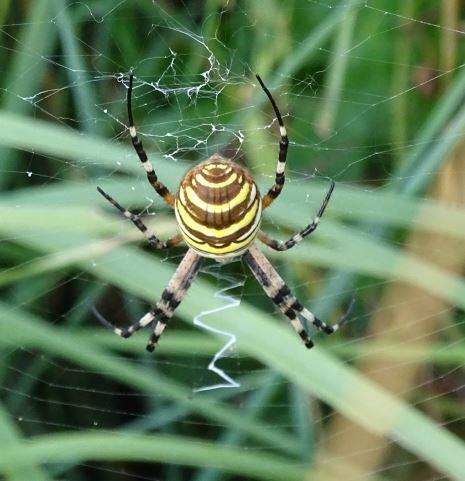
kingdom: Animalia
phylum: Arthropoda
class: Arachnida
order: Araneae
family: Araneidae
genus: Argiope
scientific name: Argiope bruennichi
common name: Wasp spider
